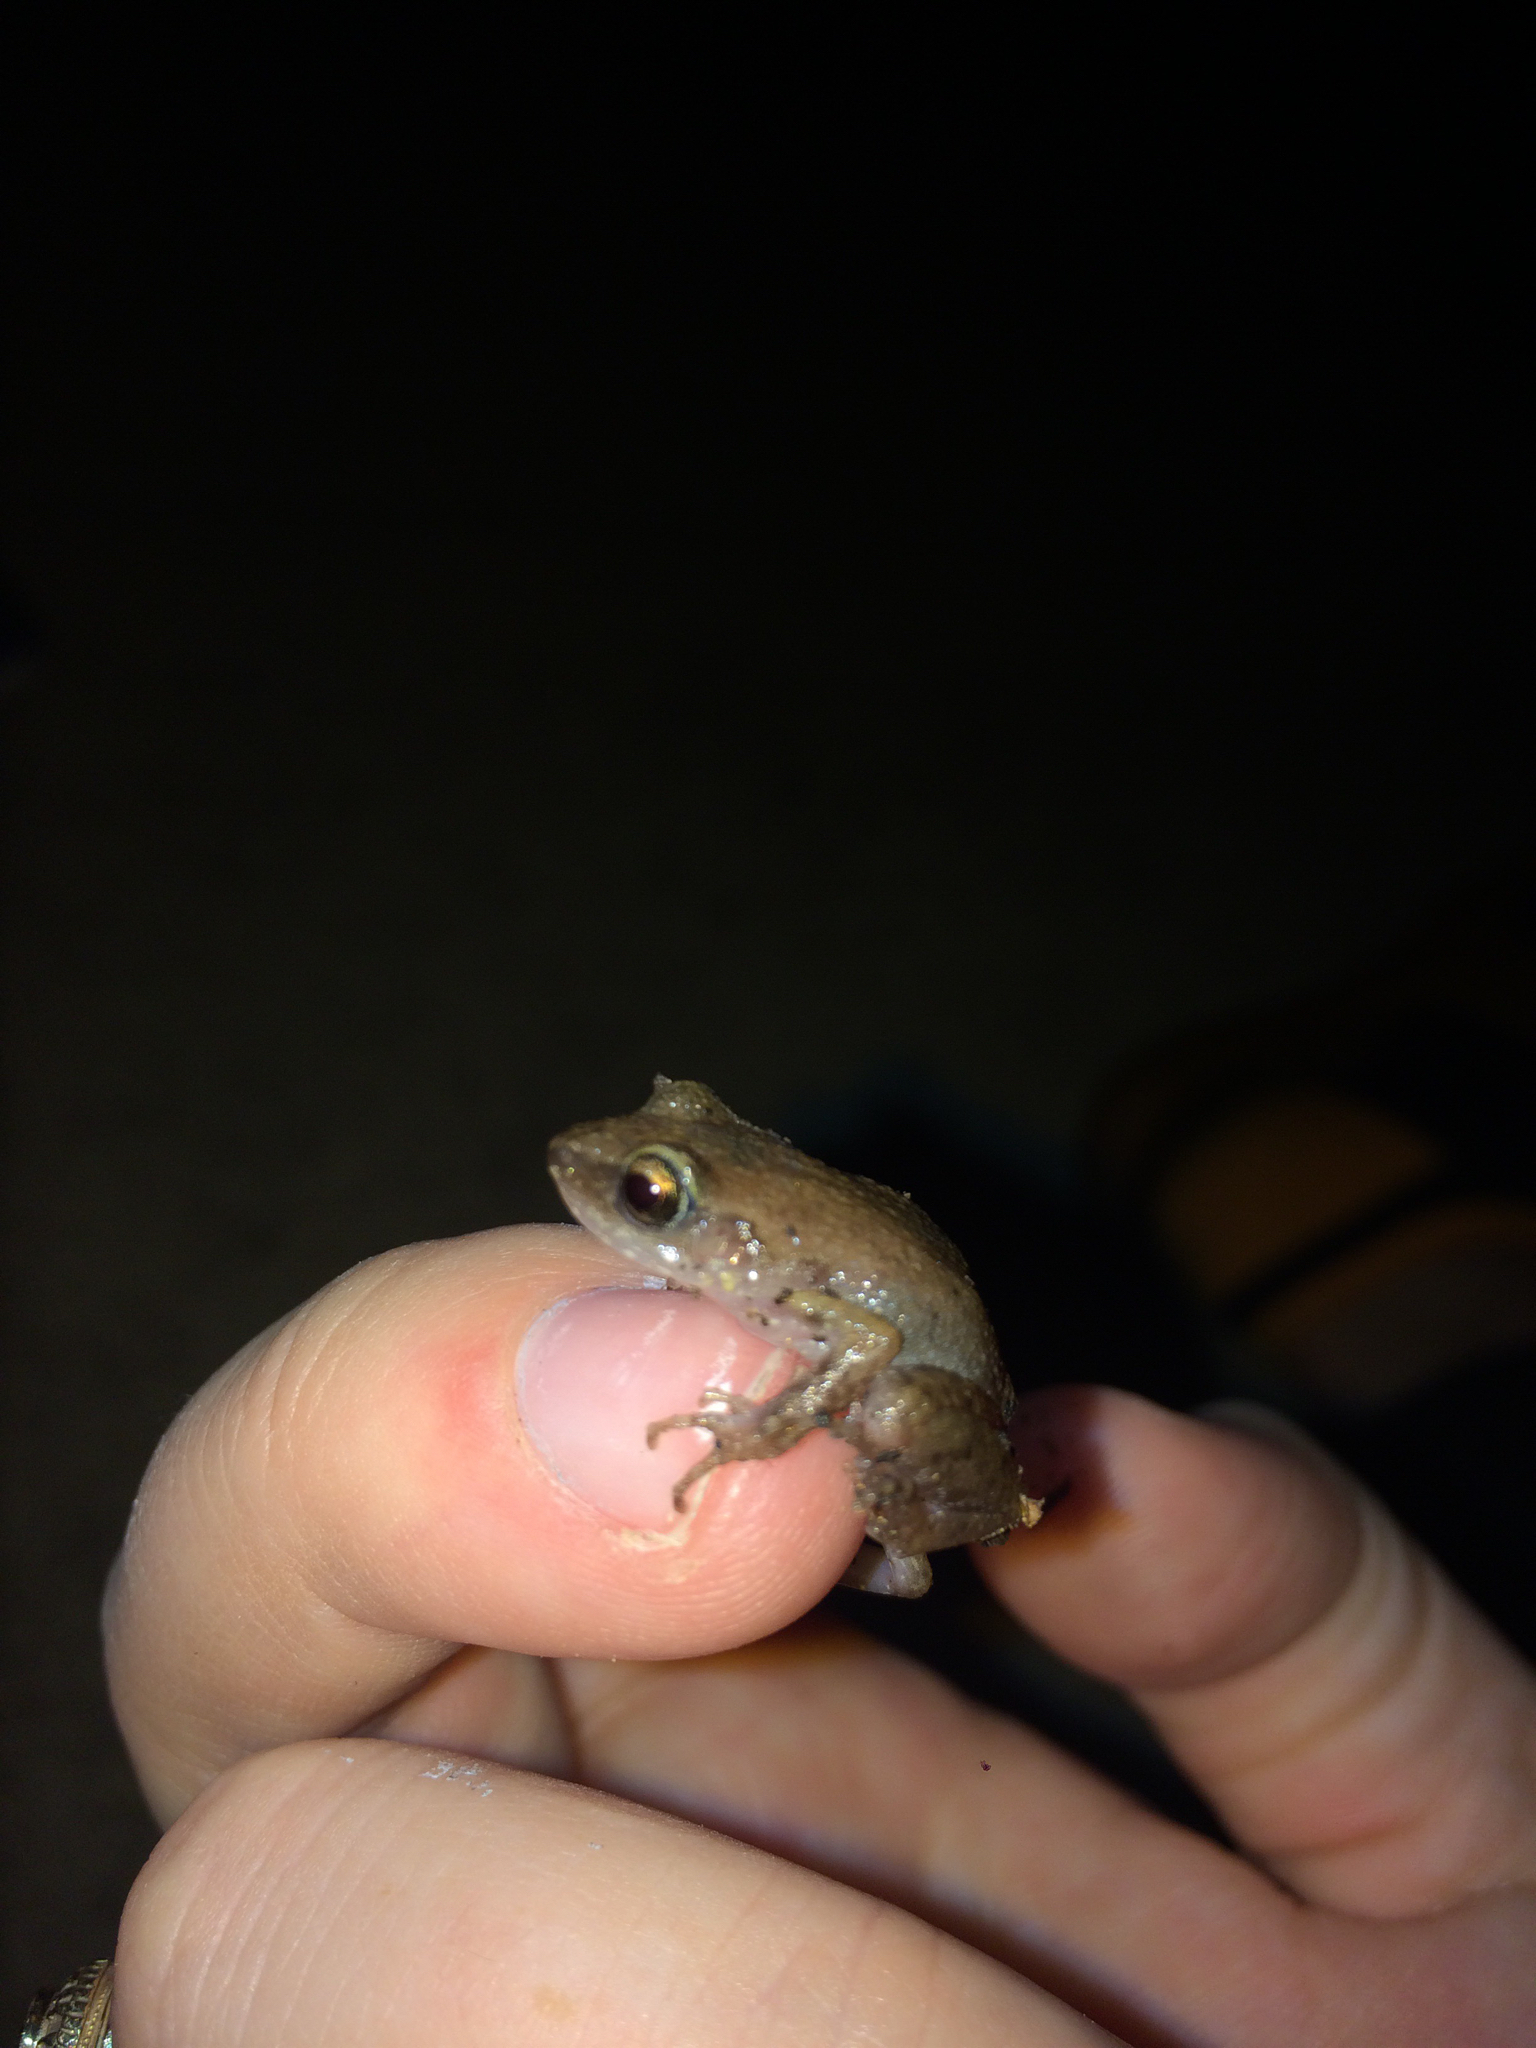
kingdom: Animalia
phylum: Chordata
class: Amphibia
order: Anura
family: Eleutherodactylidae
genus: Eleutherodactylus
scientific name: Eleutherodactylus campi
